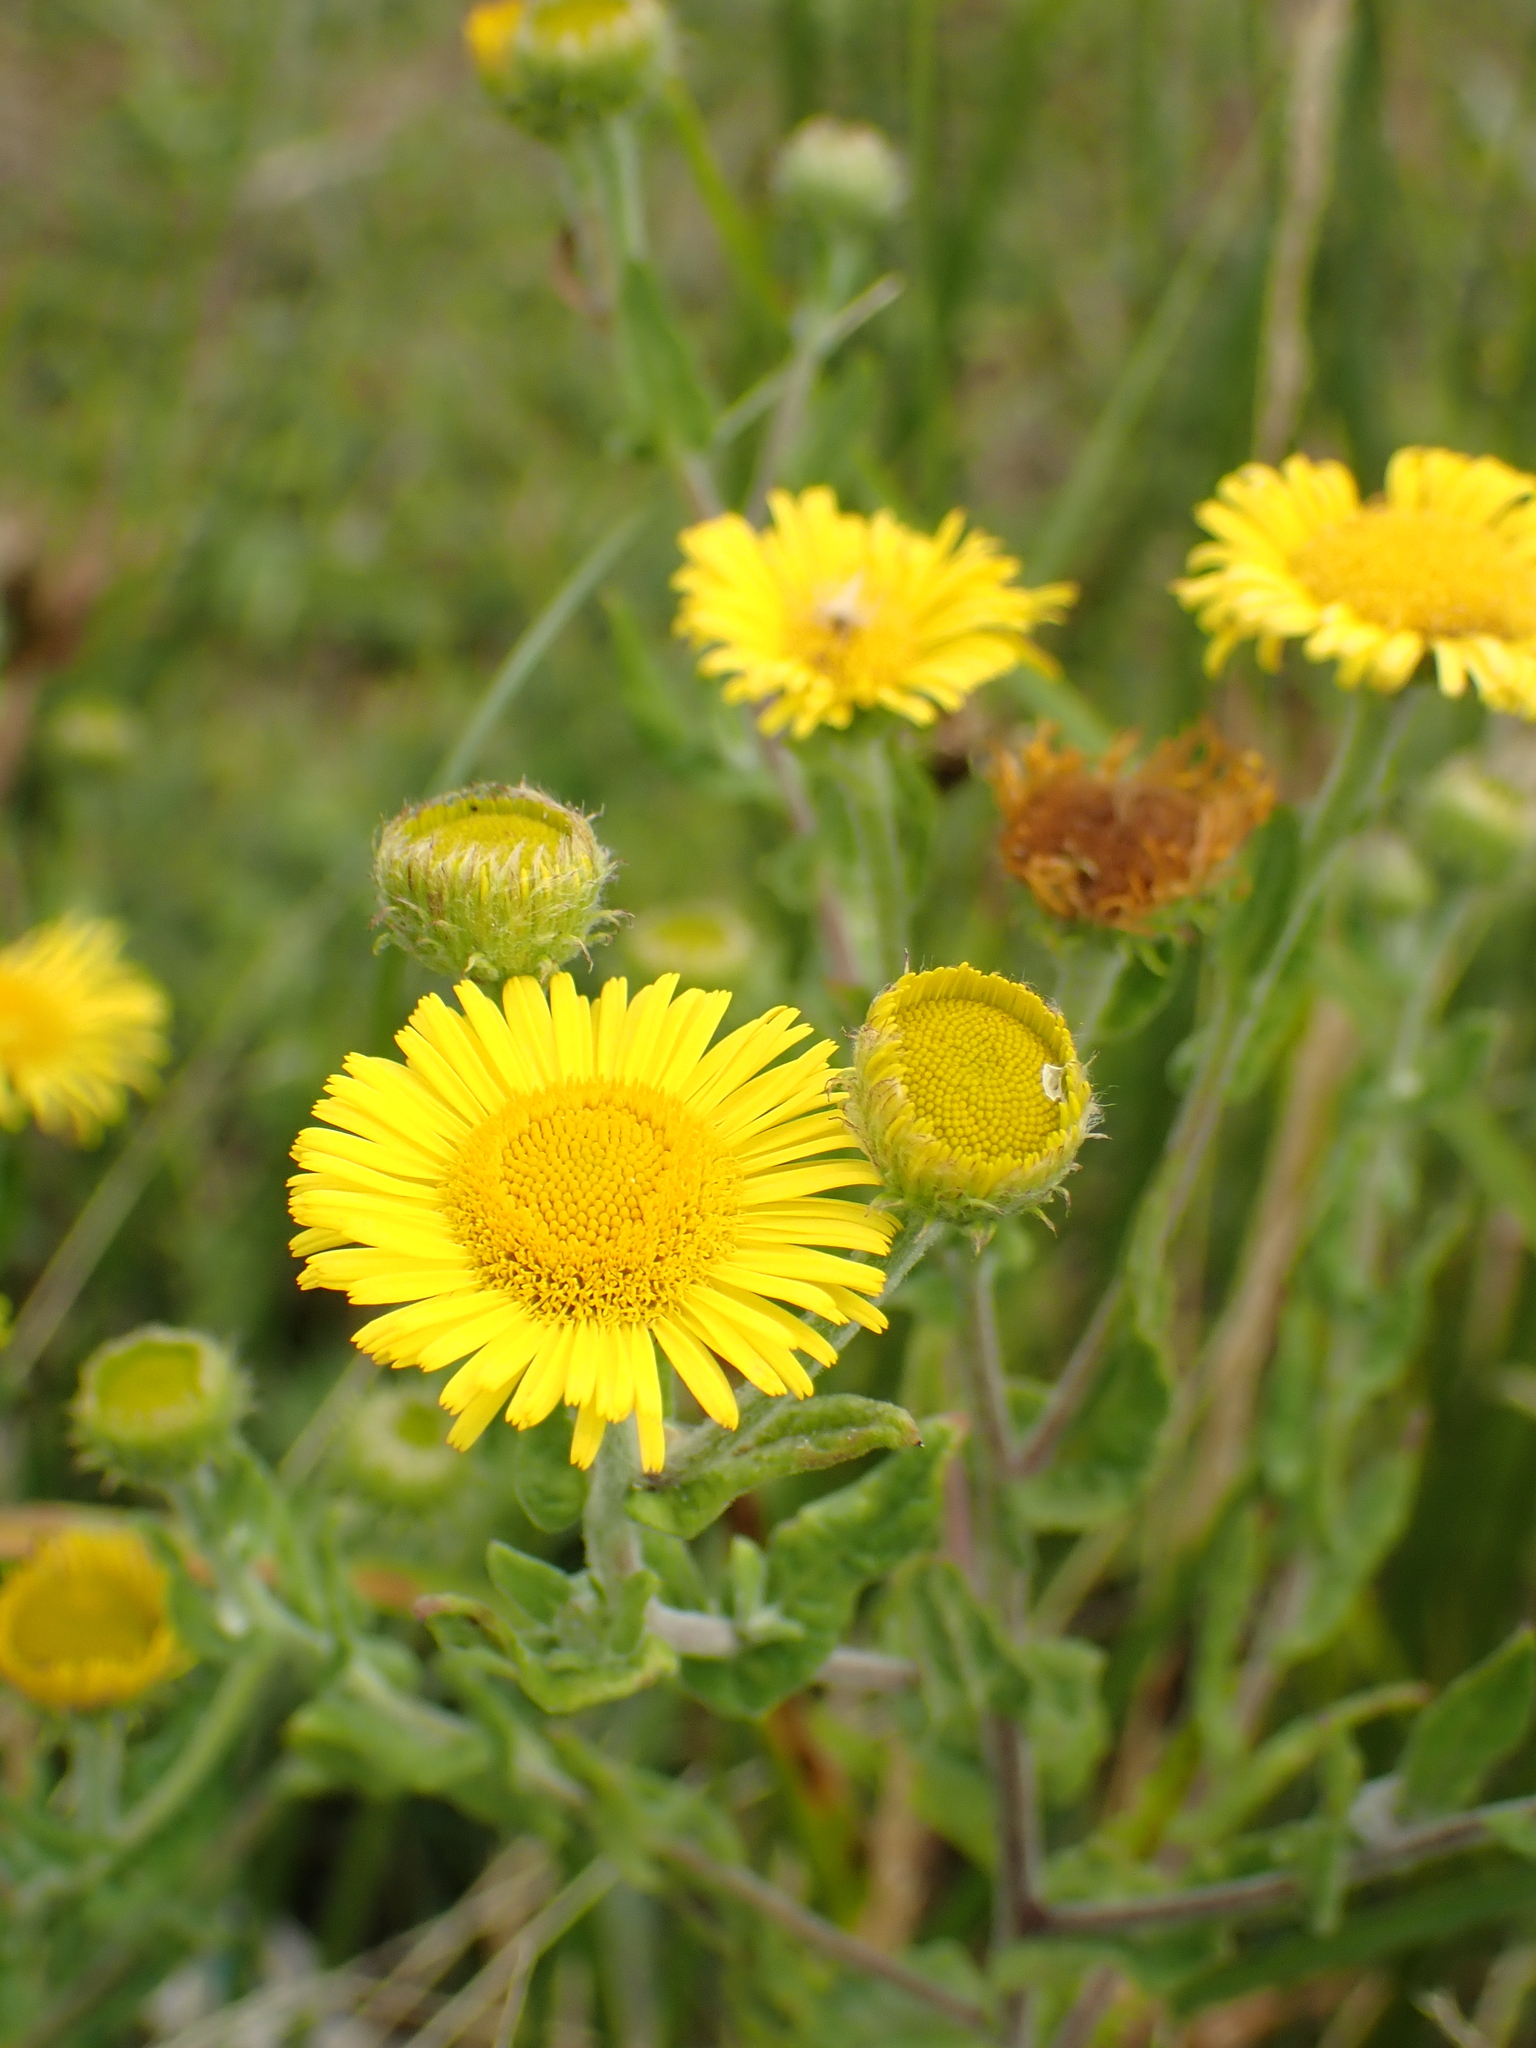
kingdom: Plantae
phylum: Tracheophyta
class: Magnoliopsida
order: Asterales
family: Asteraceae
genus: Pulicaria
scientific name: Pulicaria dysenterica
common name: Common fleabane
